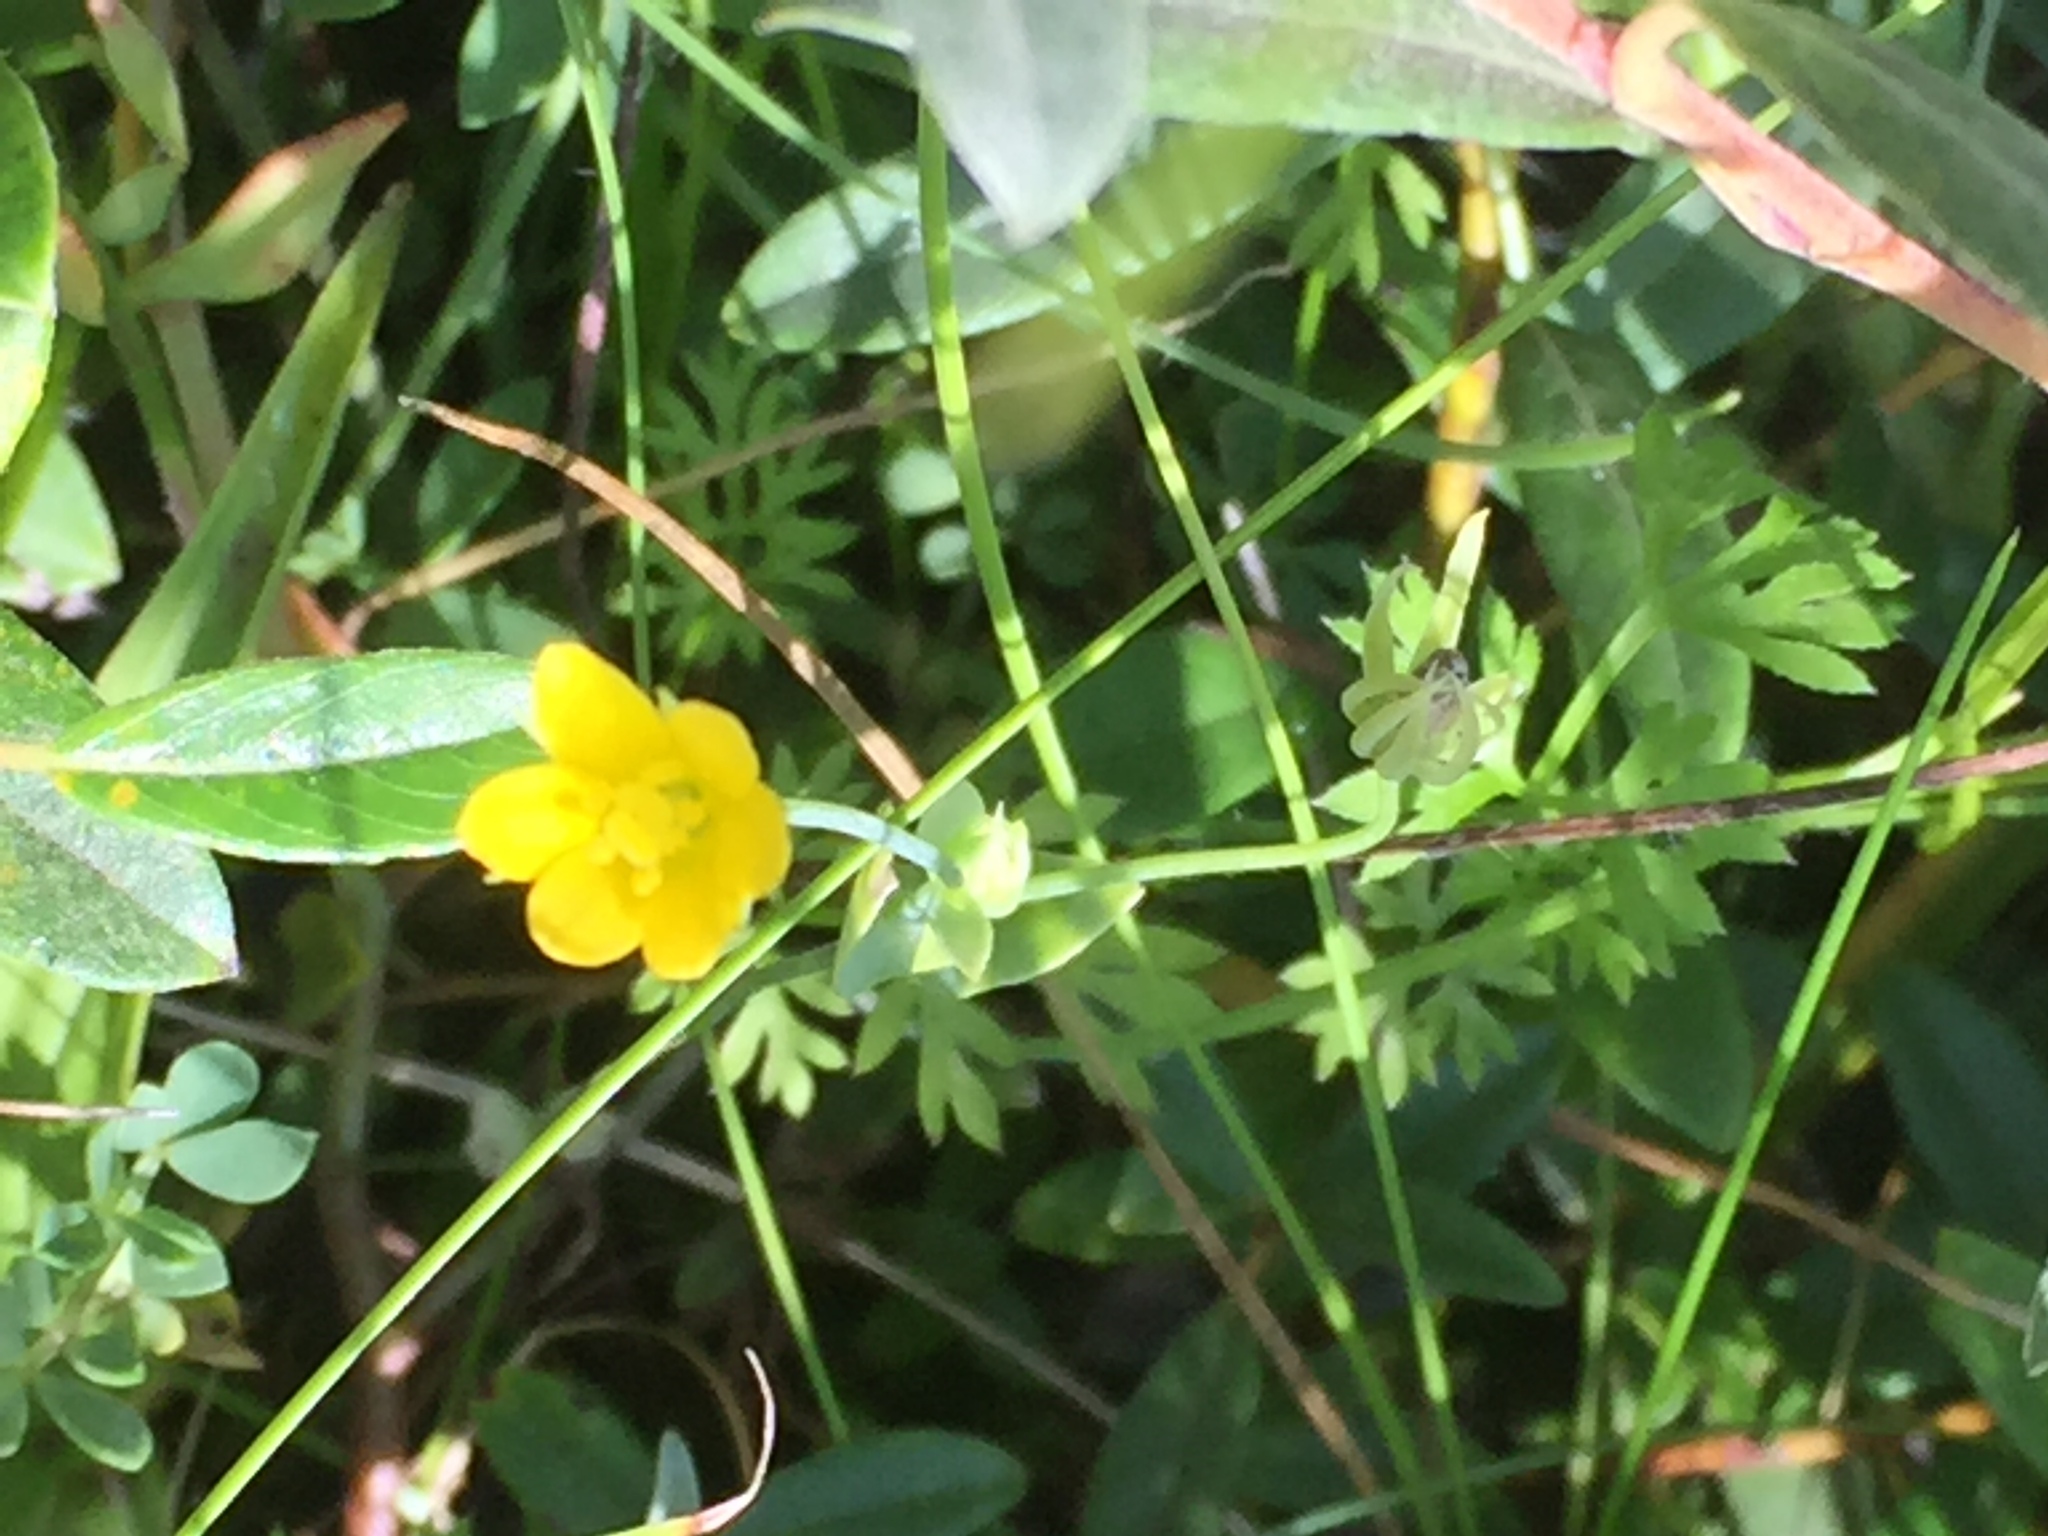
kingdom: Plantae
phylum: Tracheophyta
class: Magnoliopsida
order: Gentianales
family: Gentianaceae
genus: Blackstonia
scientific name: Blackstonia perfoliata
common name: Yellow-wort
